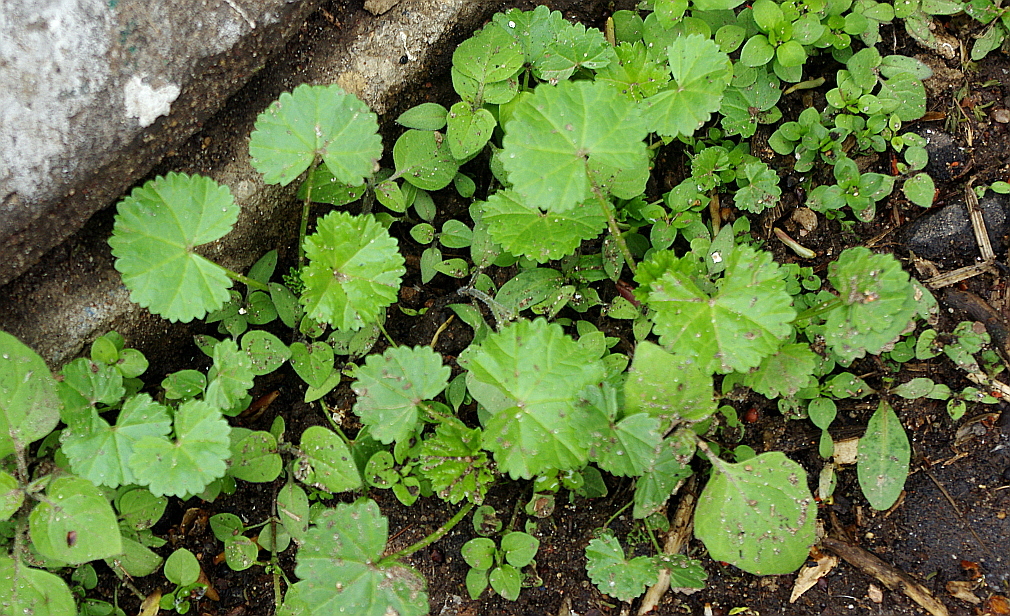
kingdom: Plantae
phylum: Tracheophyta
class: Magnoliopsida
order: Malvales
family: Malvaceae
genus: Malva
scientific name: Malva pusilla
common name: Small mallow
